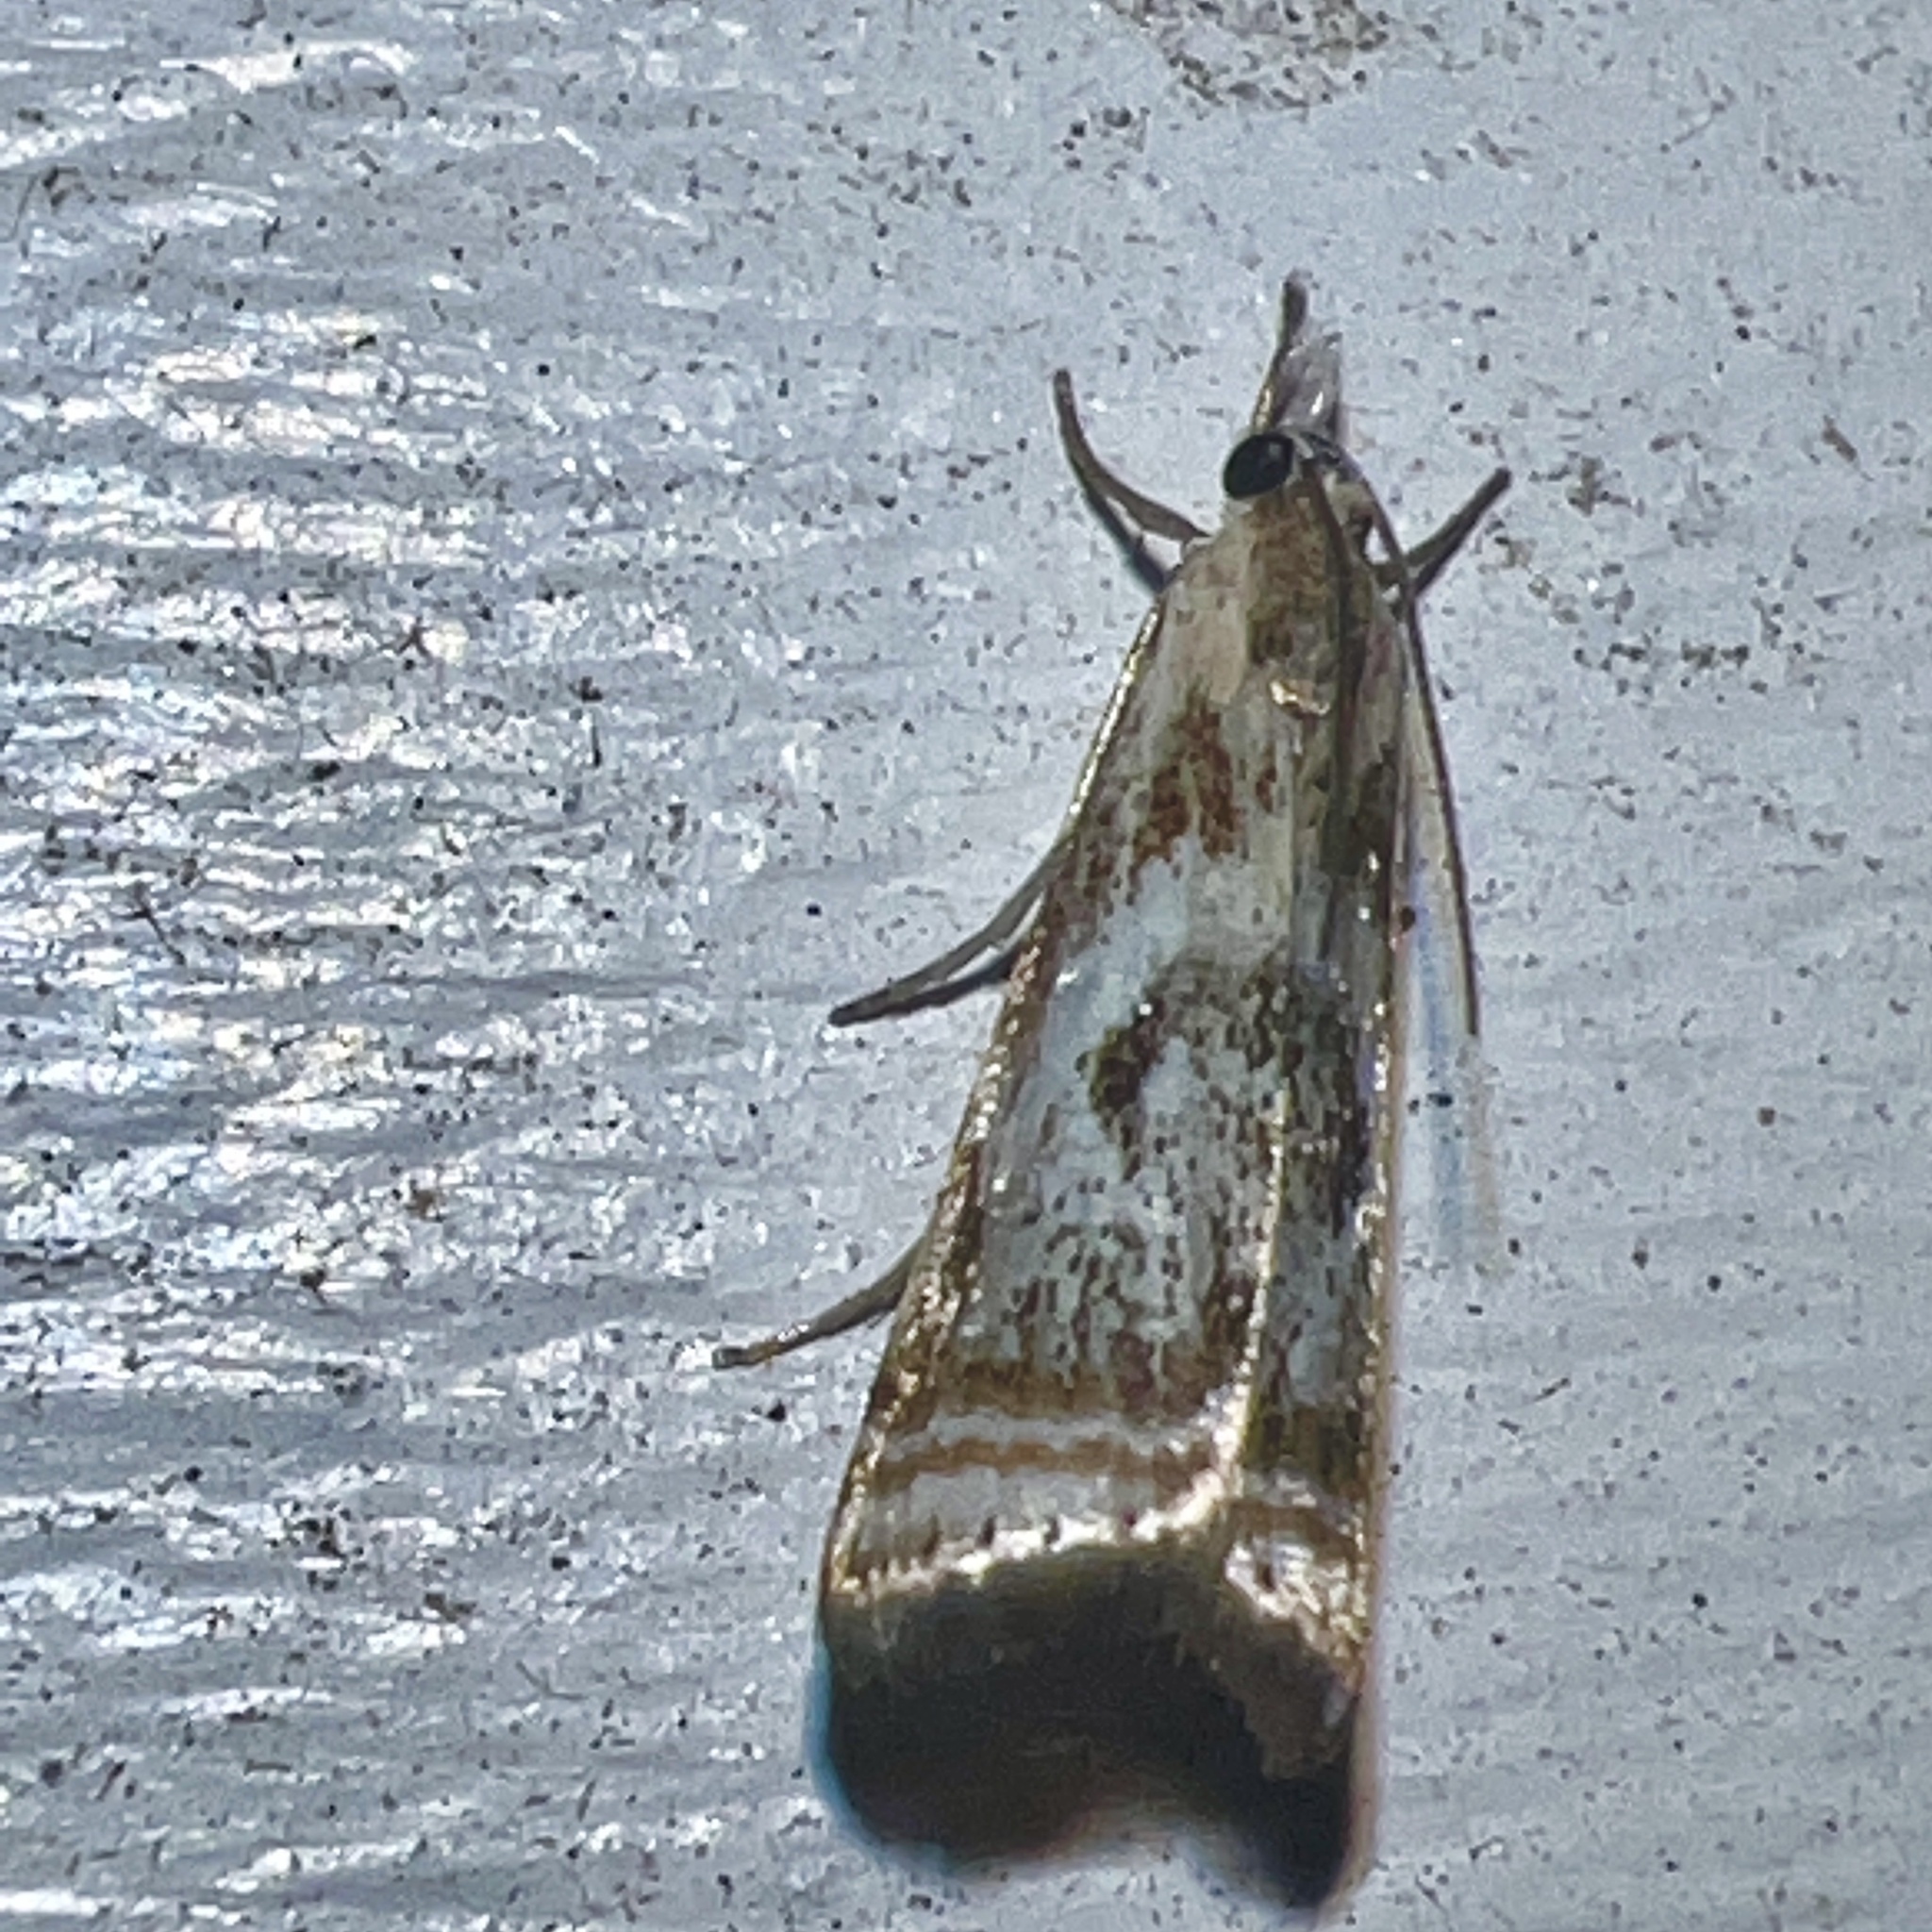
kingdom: Animalia
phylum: Arthropoda
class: Insecta
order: Lepidoptera
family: Crambidae
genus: Microcrambus
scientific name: Microcrambus elegans
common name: Elegant grass-veneer
